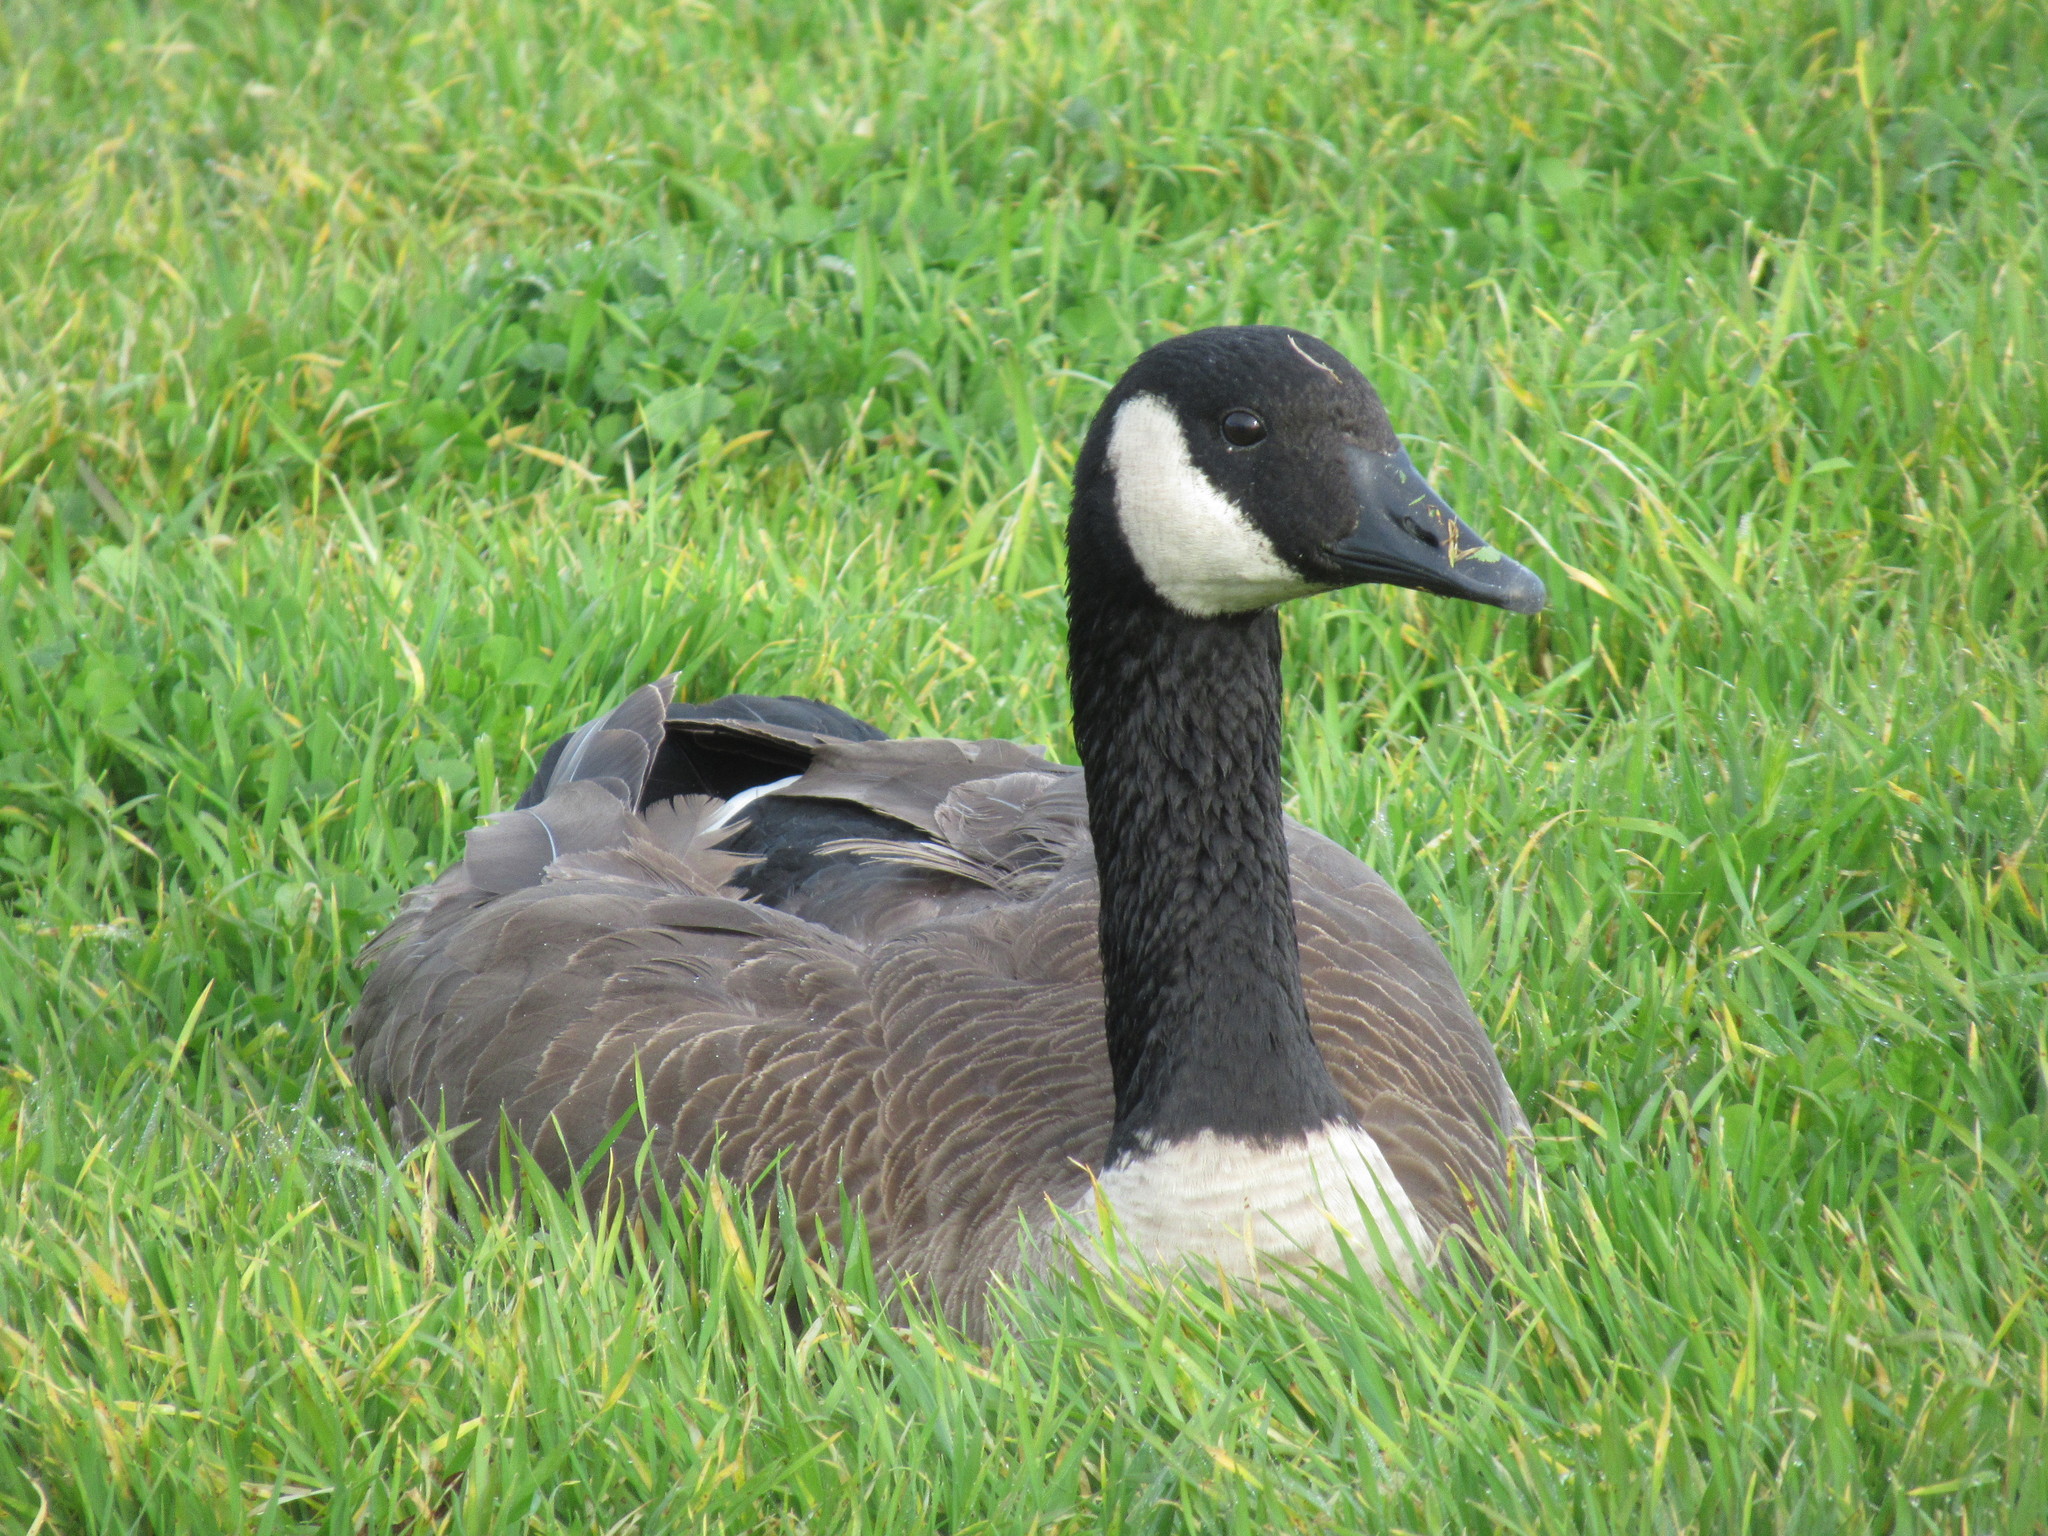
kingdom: Animalia
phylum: Chordata
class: Aves
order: Anseriformes
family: Anatidae
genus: Branta
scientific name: Branta canadensis
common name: Canada goose
